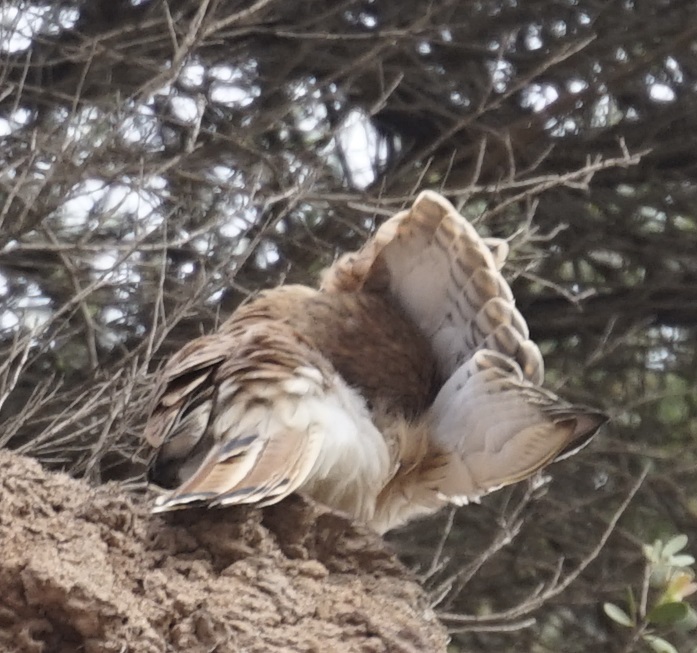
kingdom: Animalia
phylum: Chordata
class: Aves
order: Falconiformes
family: Falconidae
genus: Falco
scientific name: Falco cenchroides
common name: Nankeen kestrel
